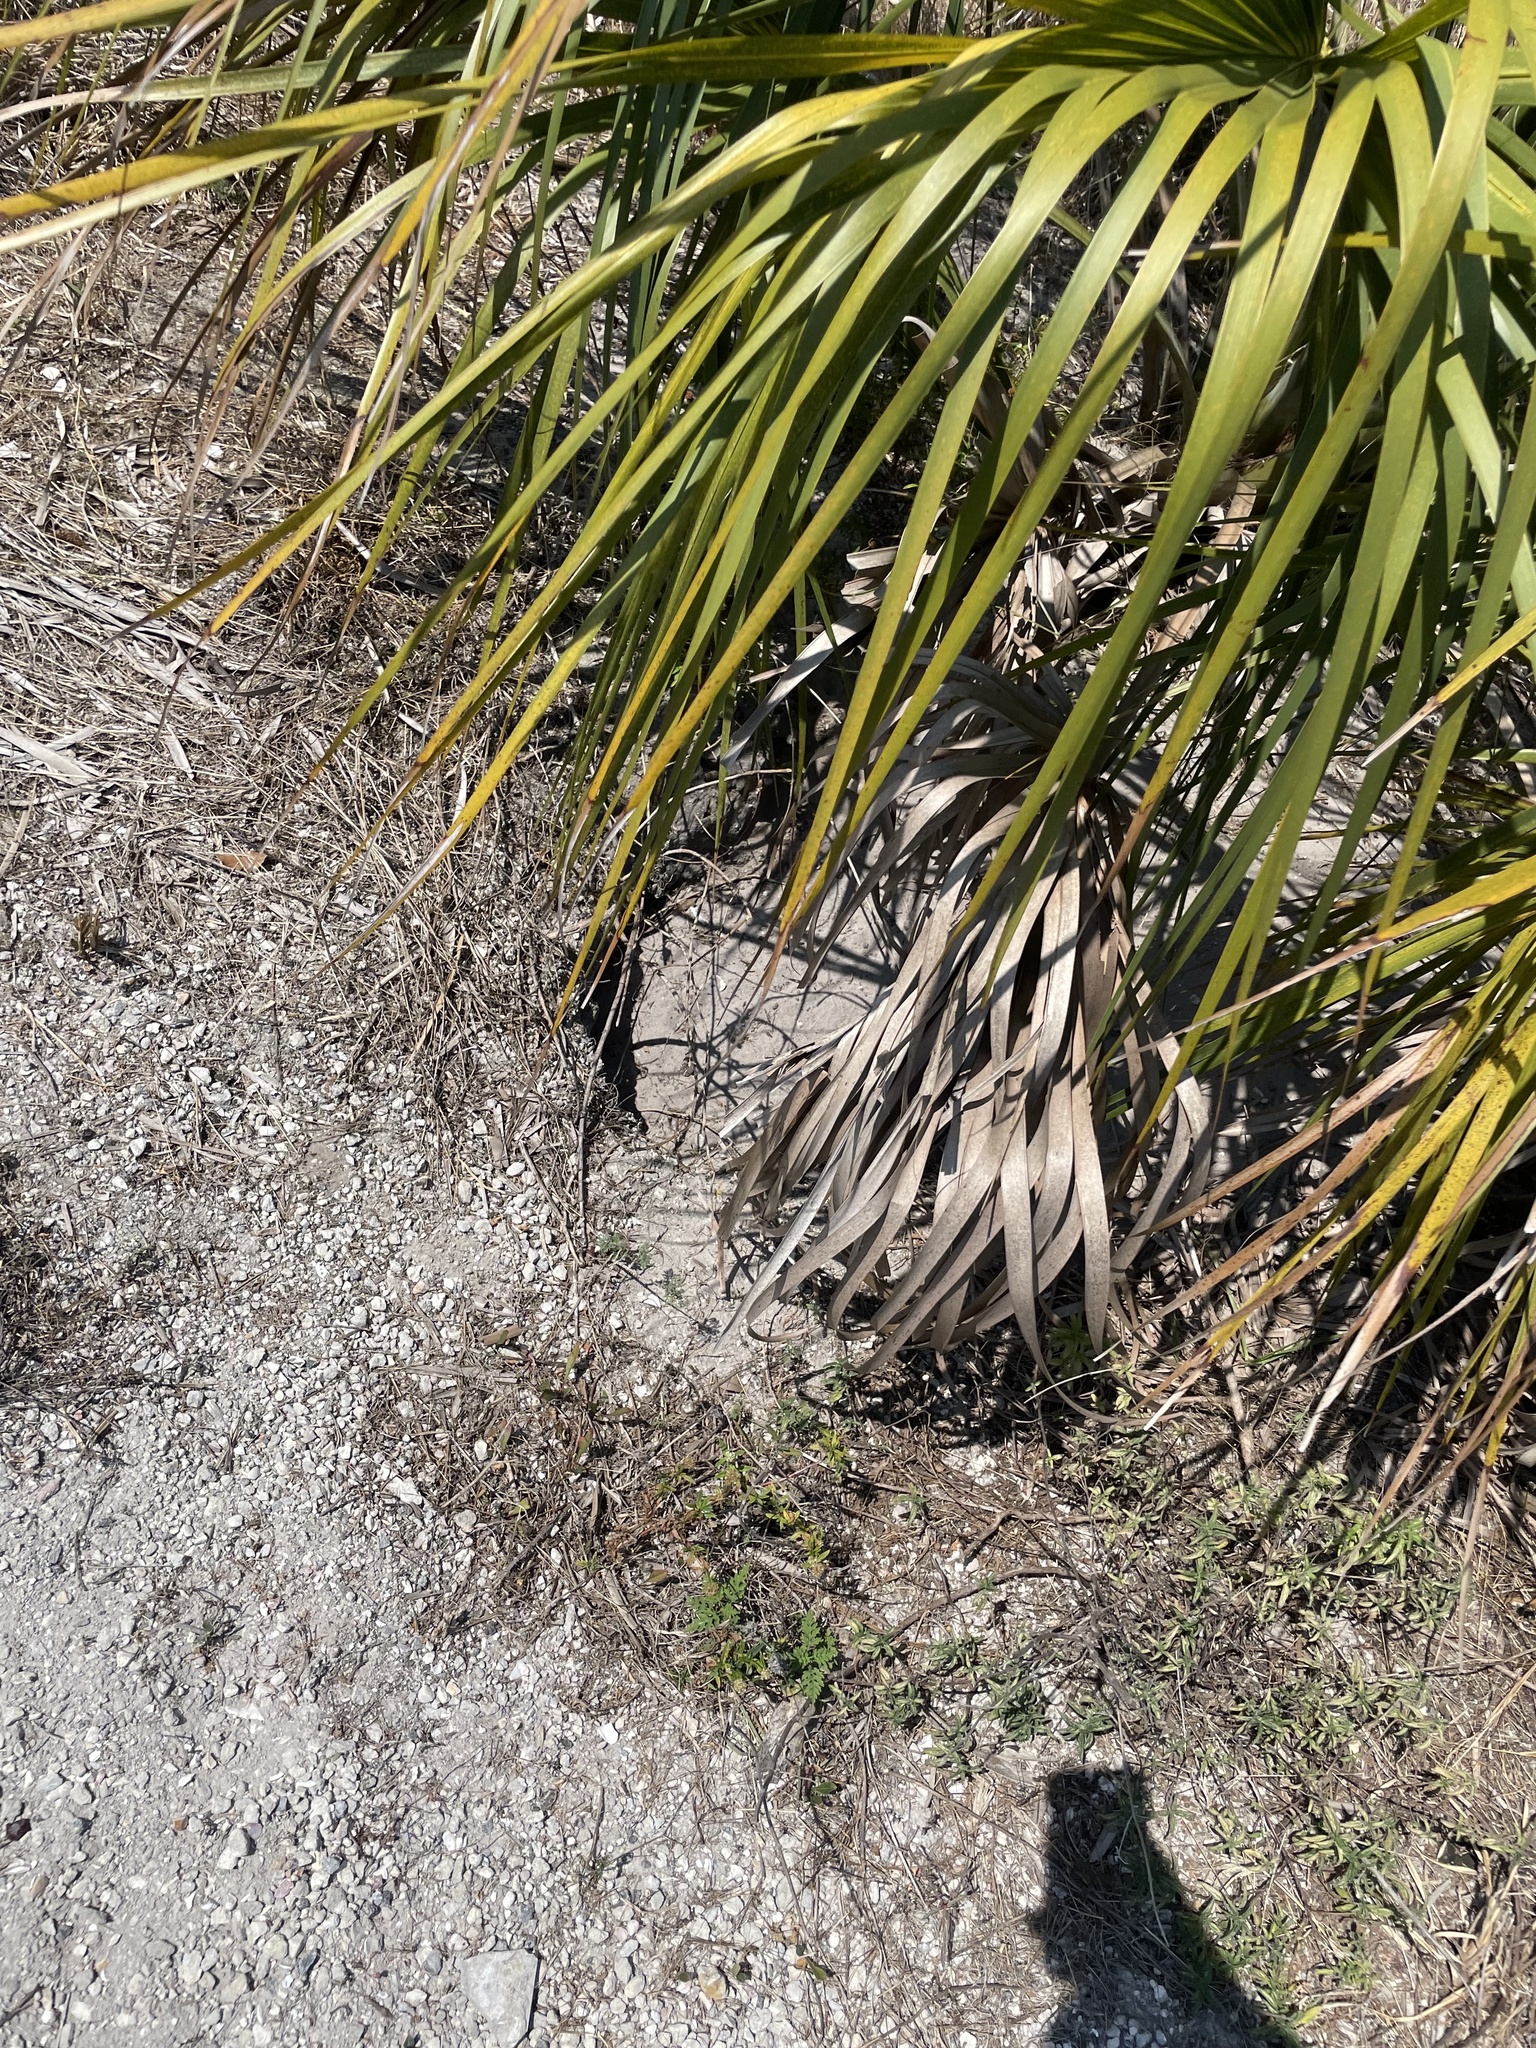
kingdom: Animalia
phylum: Chordata
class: Testudines
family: Testudinidae
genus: Gopherus
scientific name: Gopherus polyphemus
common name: Florida gopher tortoise
